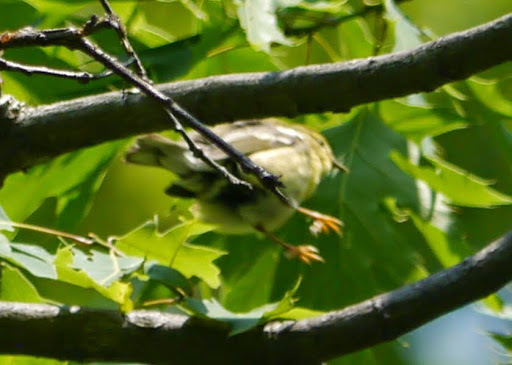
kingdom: Animalia
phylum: Chordata
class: Aves
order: Passeriformes
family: Parulidae
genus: Setophaga
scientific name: Setophaga magnolia
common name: Magnolia warbler
